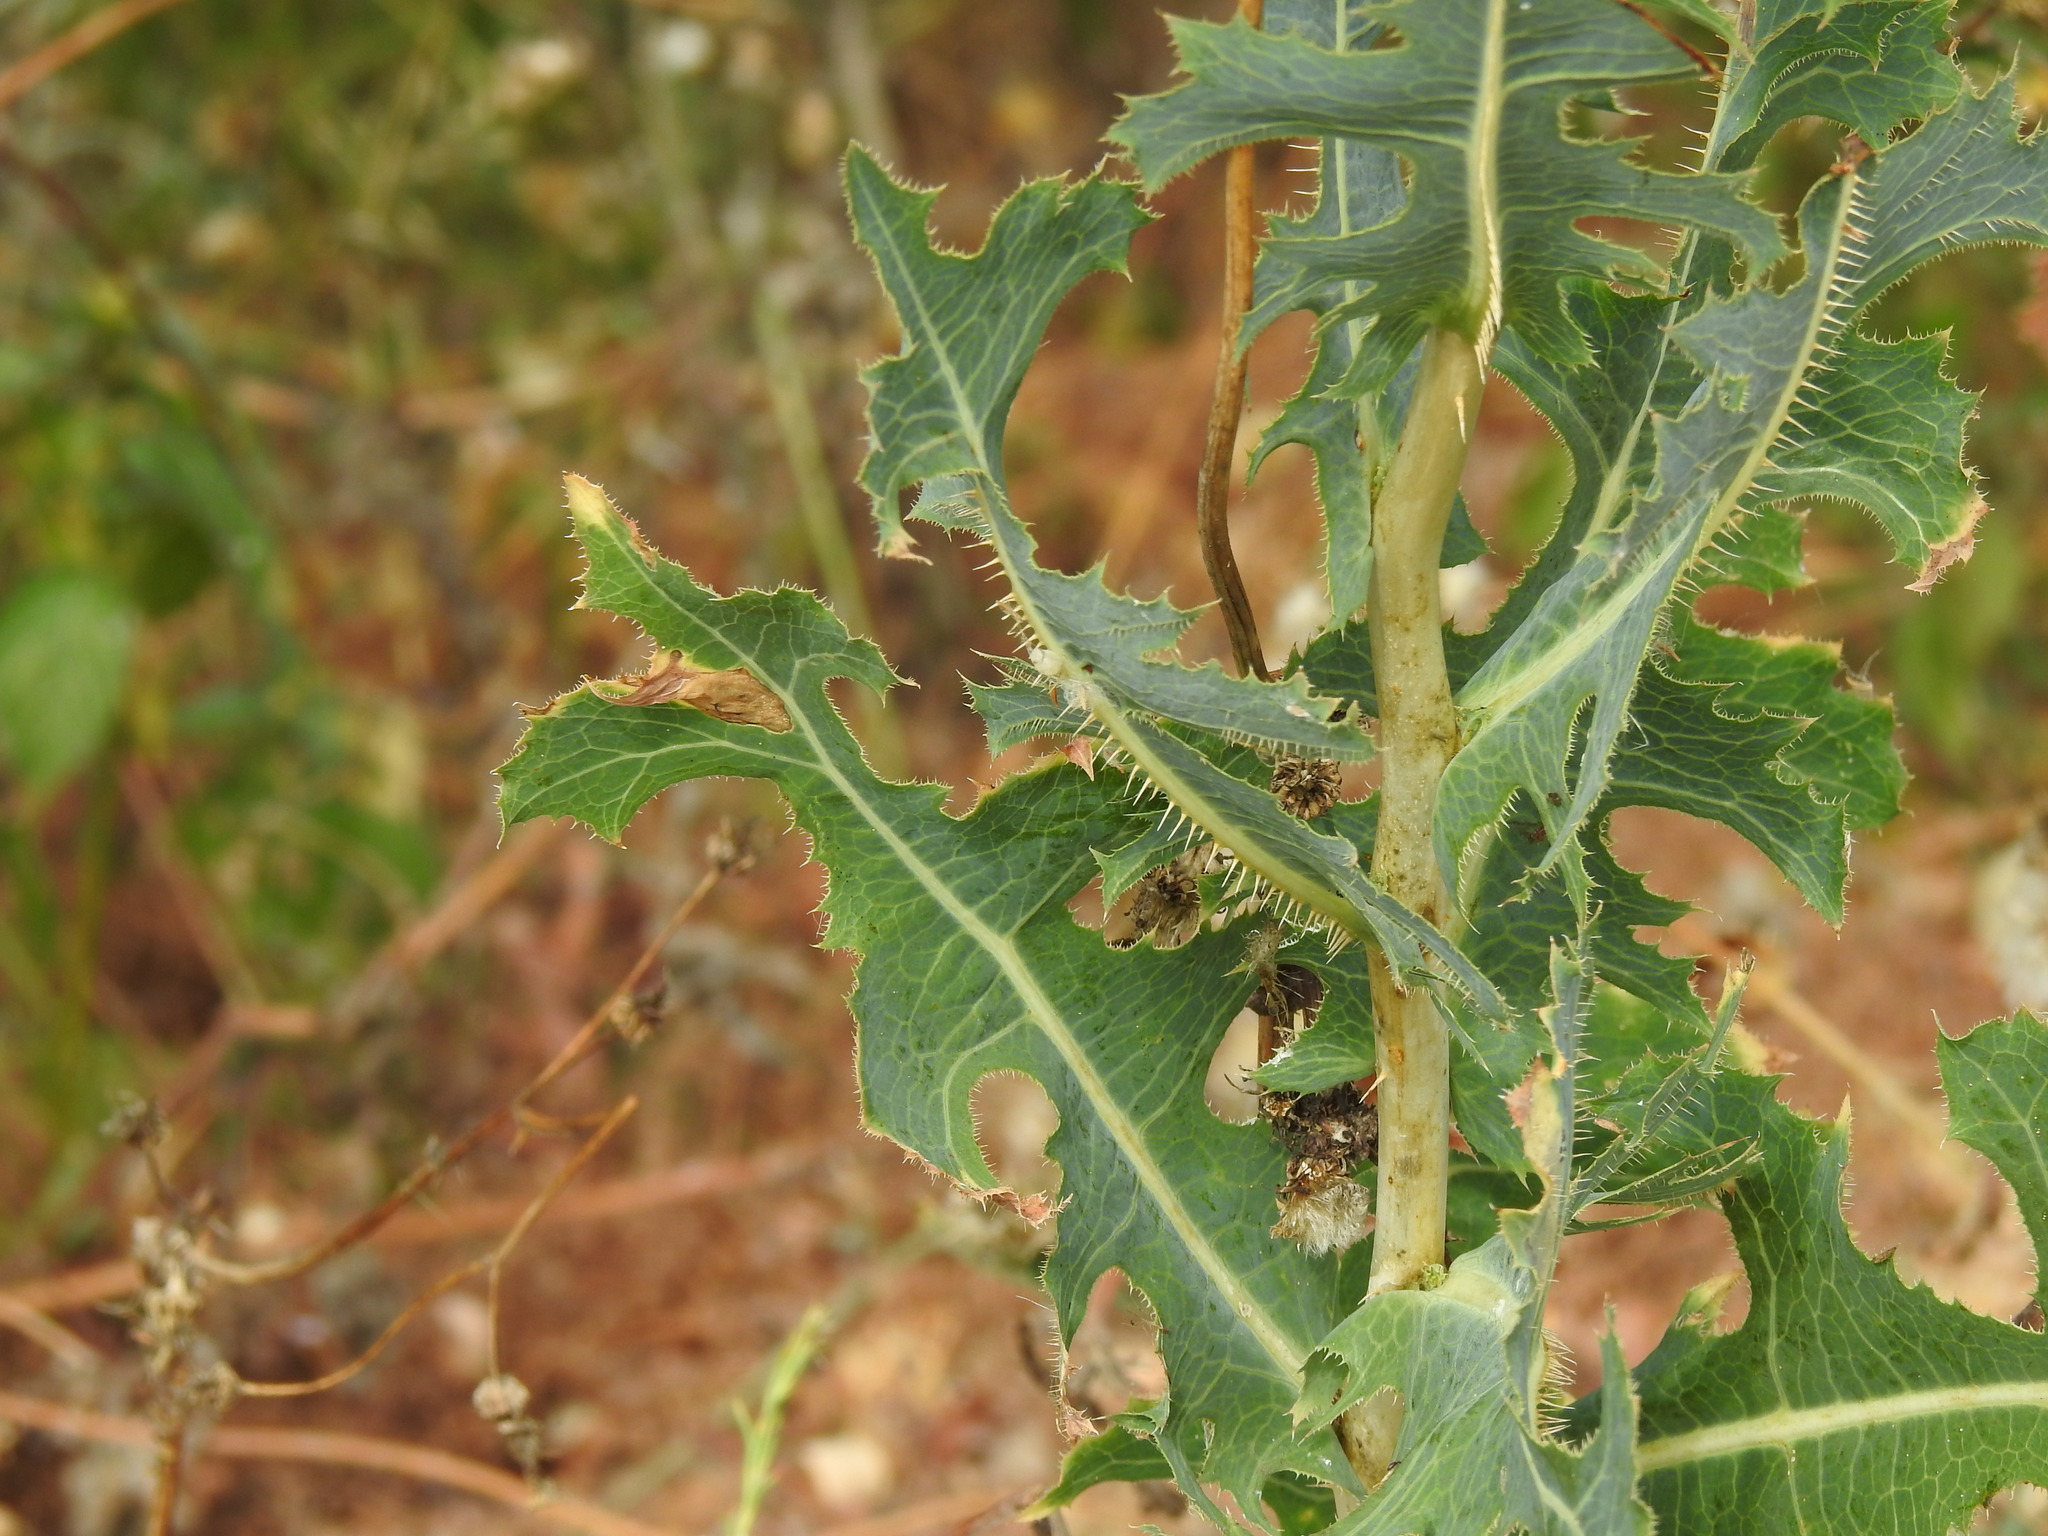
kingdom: Plantae
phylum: Tracheophyta
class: Magnoliopsida
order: Asterales
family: Asteraceae
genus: Lactuca
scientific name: Lactuca serriola
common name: Prickly lettuce
